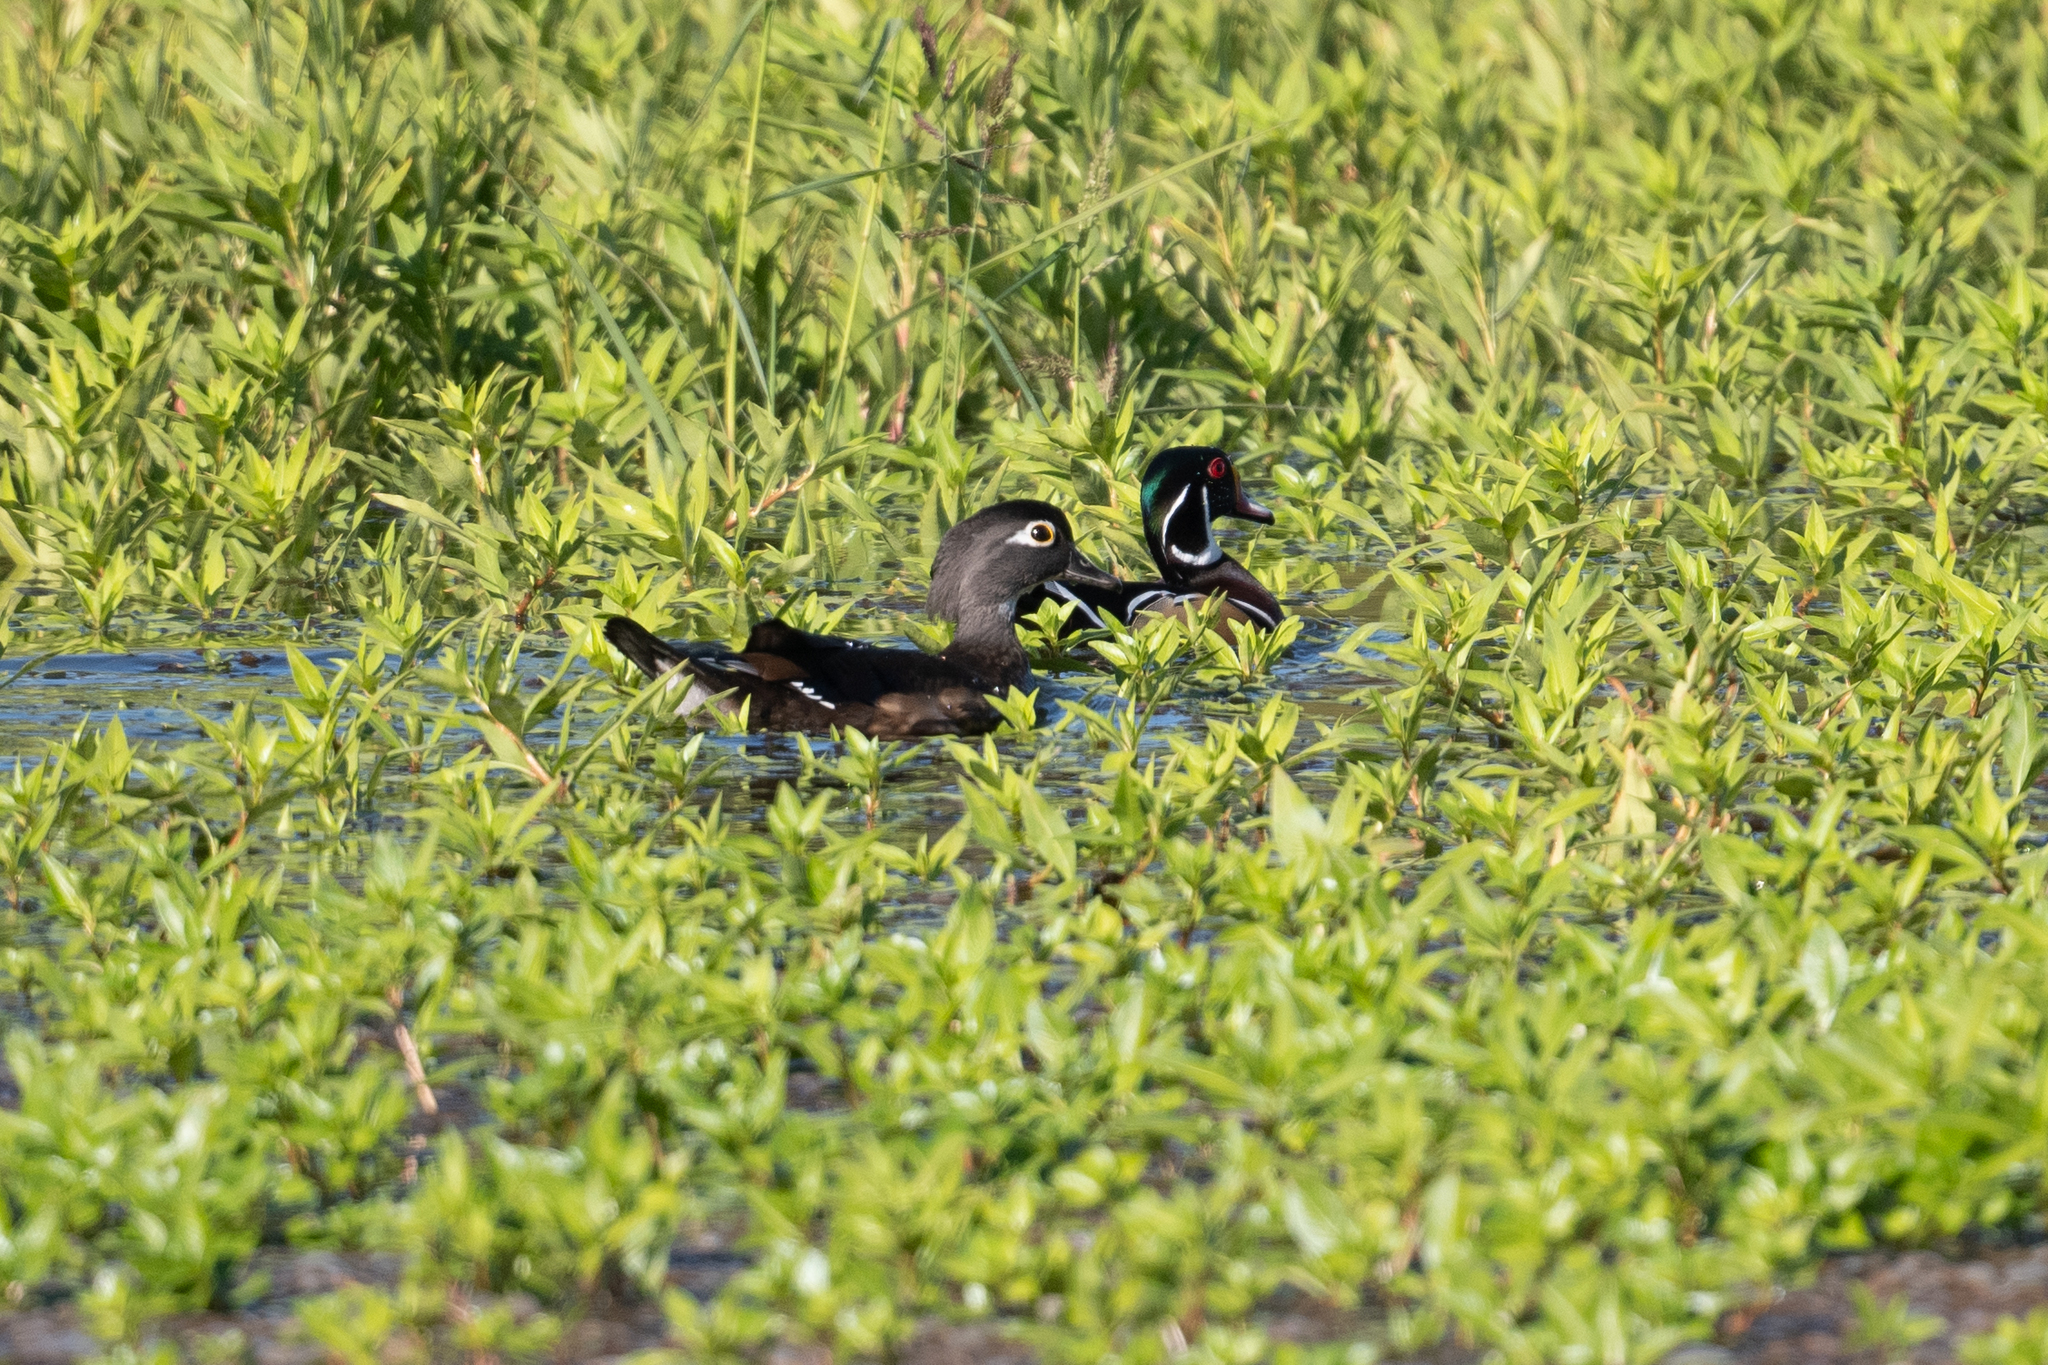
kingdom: Animalia
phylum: Chordata
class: Aves
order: Anseriformes
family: Anatidae
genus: Aix
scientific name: Aix sponsa
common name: Wood duck
